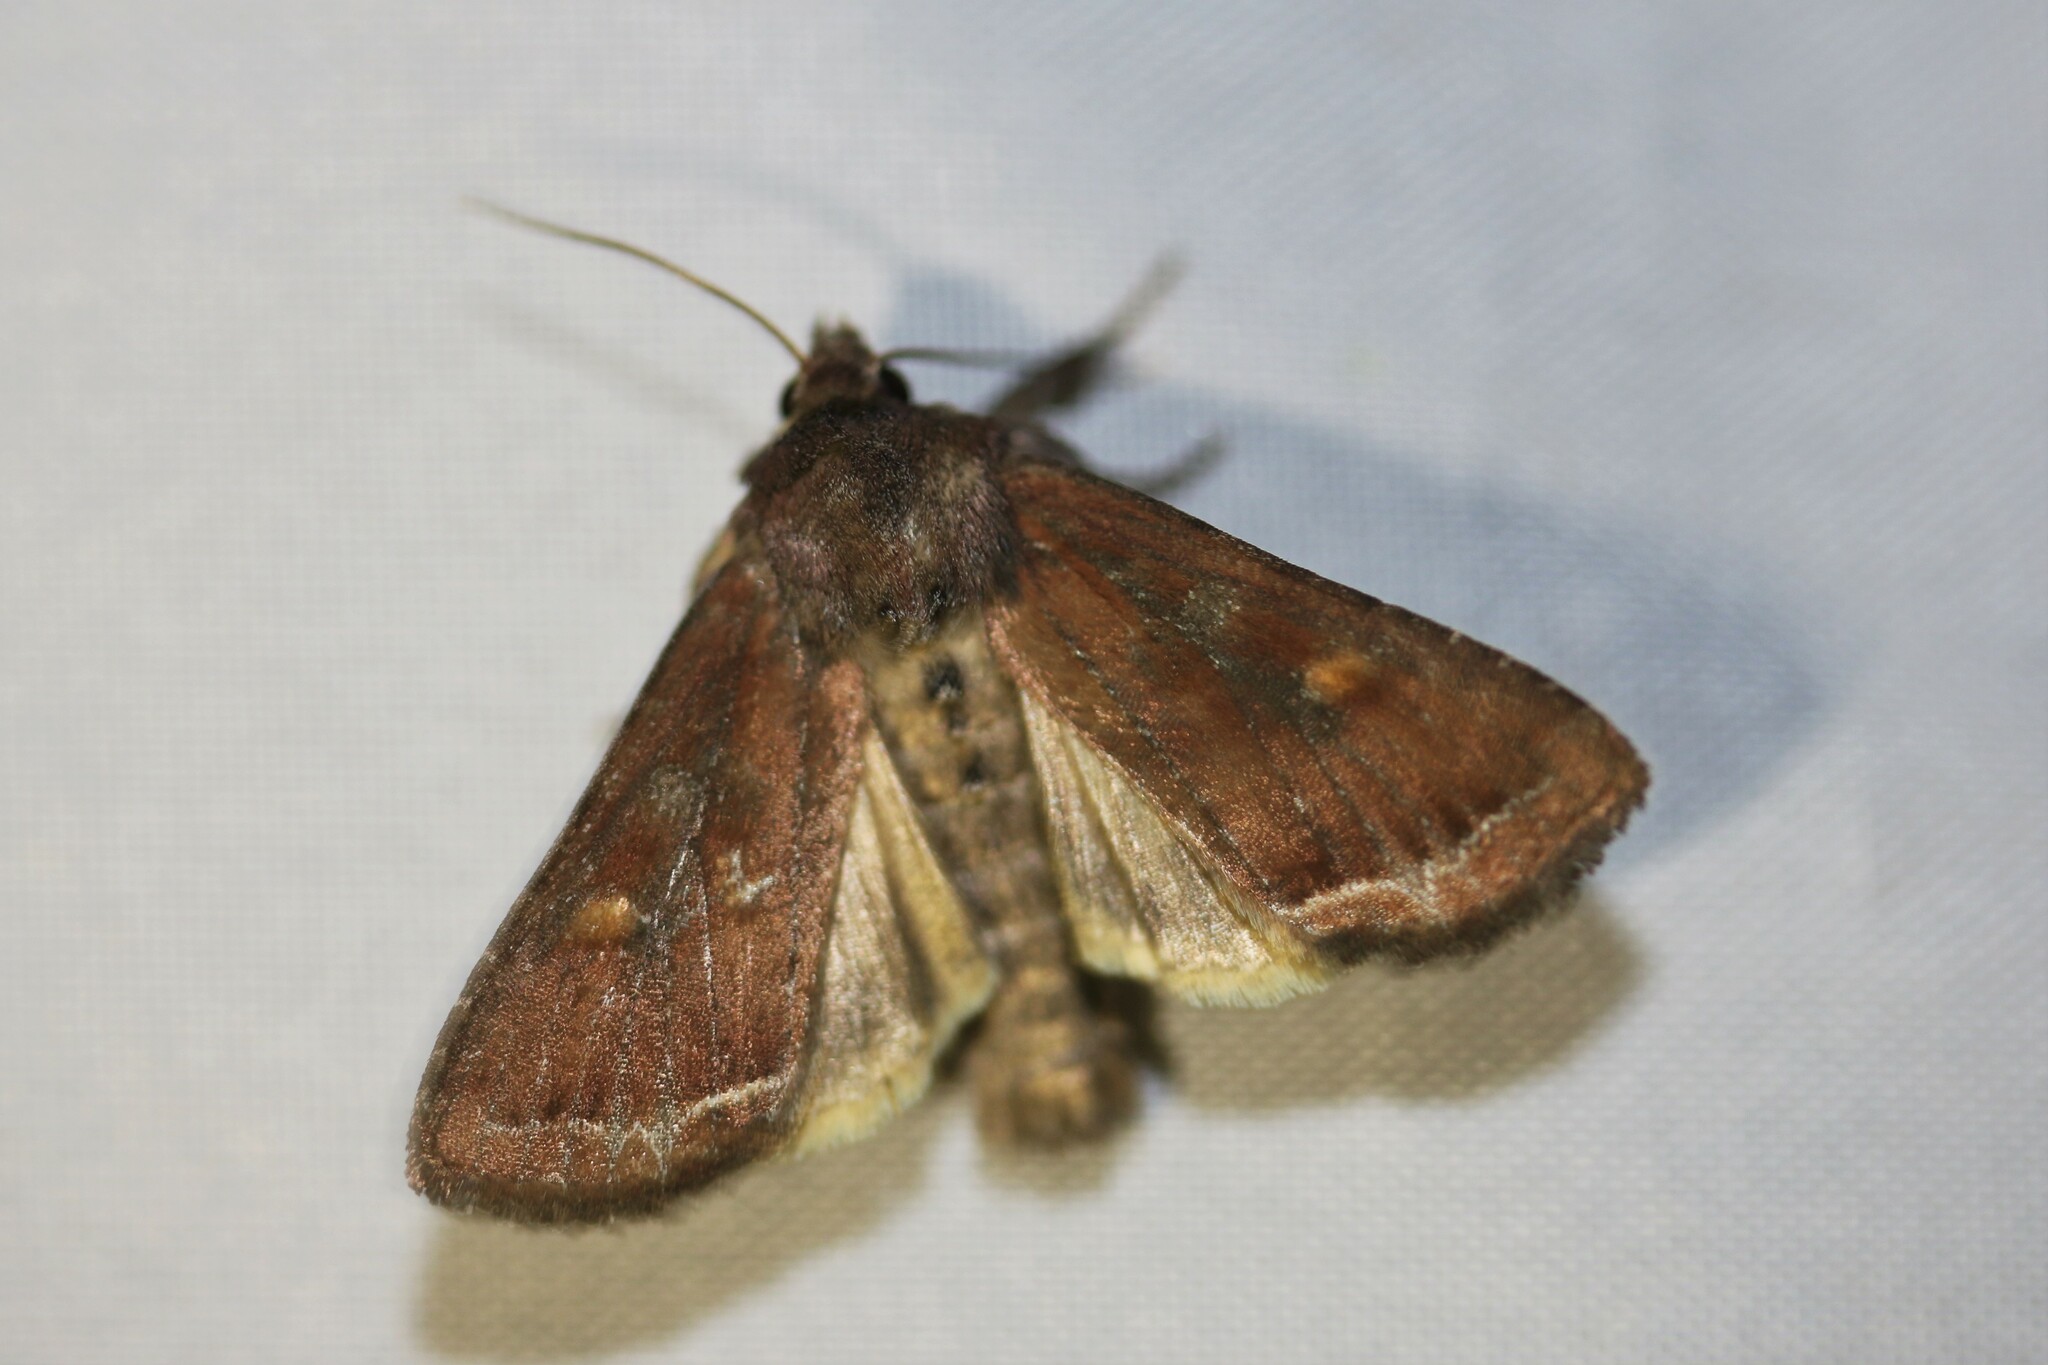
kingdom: Animalia
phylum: Arthropoda
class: Insecta
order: Lepidoptera
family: Noctuidae
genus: Lacanobia
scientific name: Lacanobia oleracea
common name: Bright-line brown-eye
